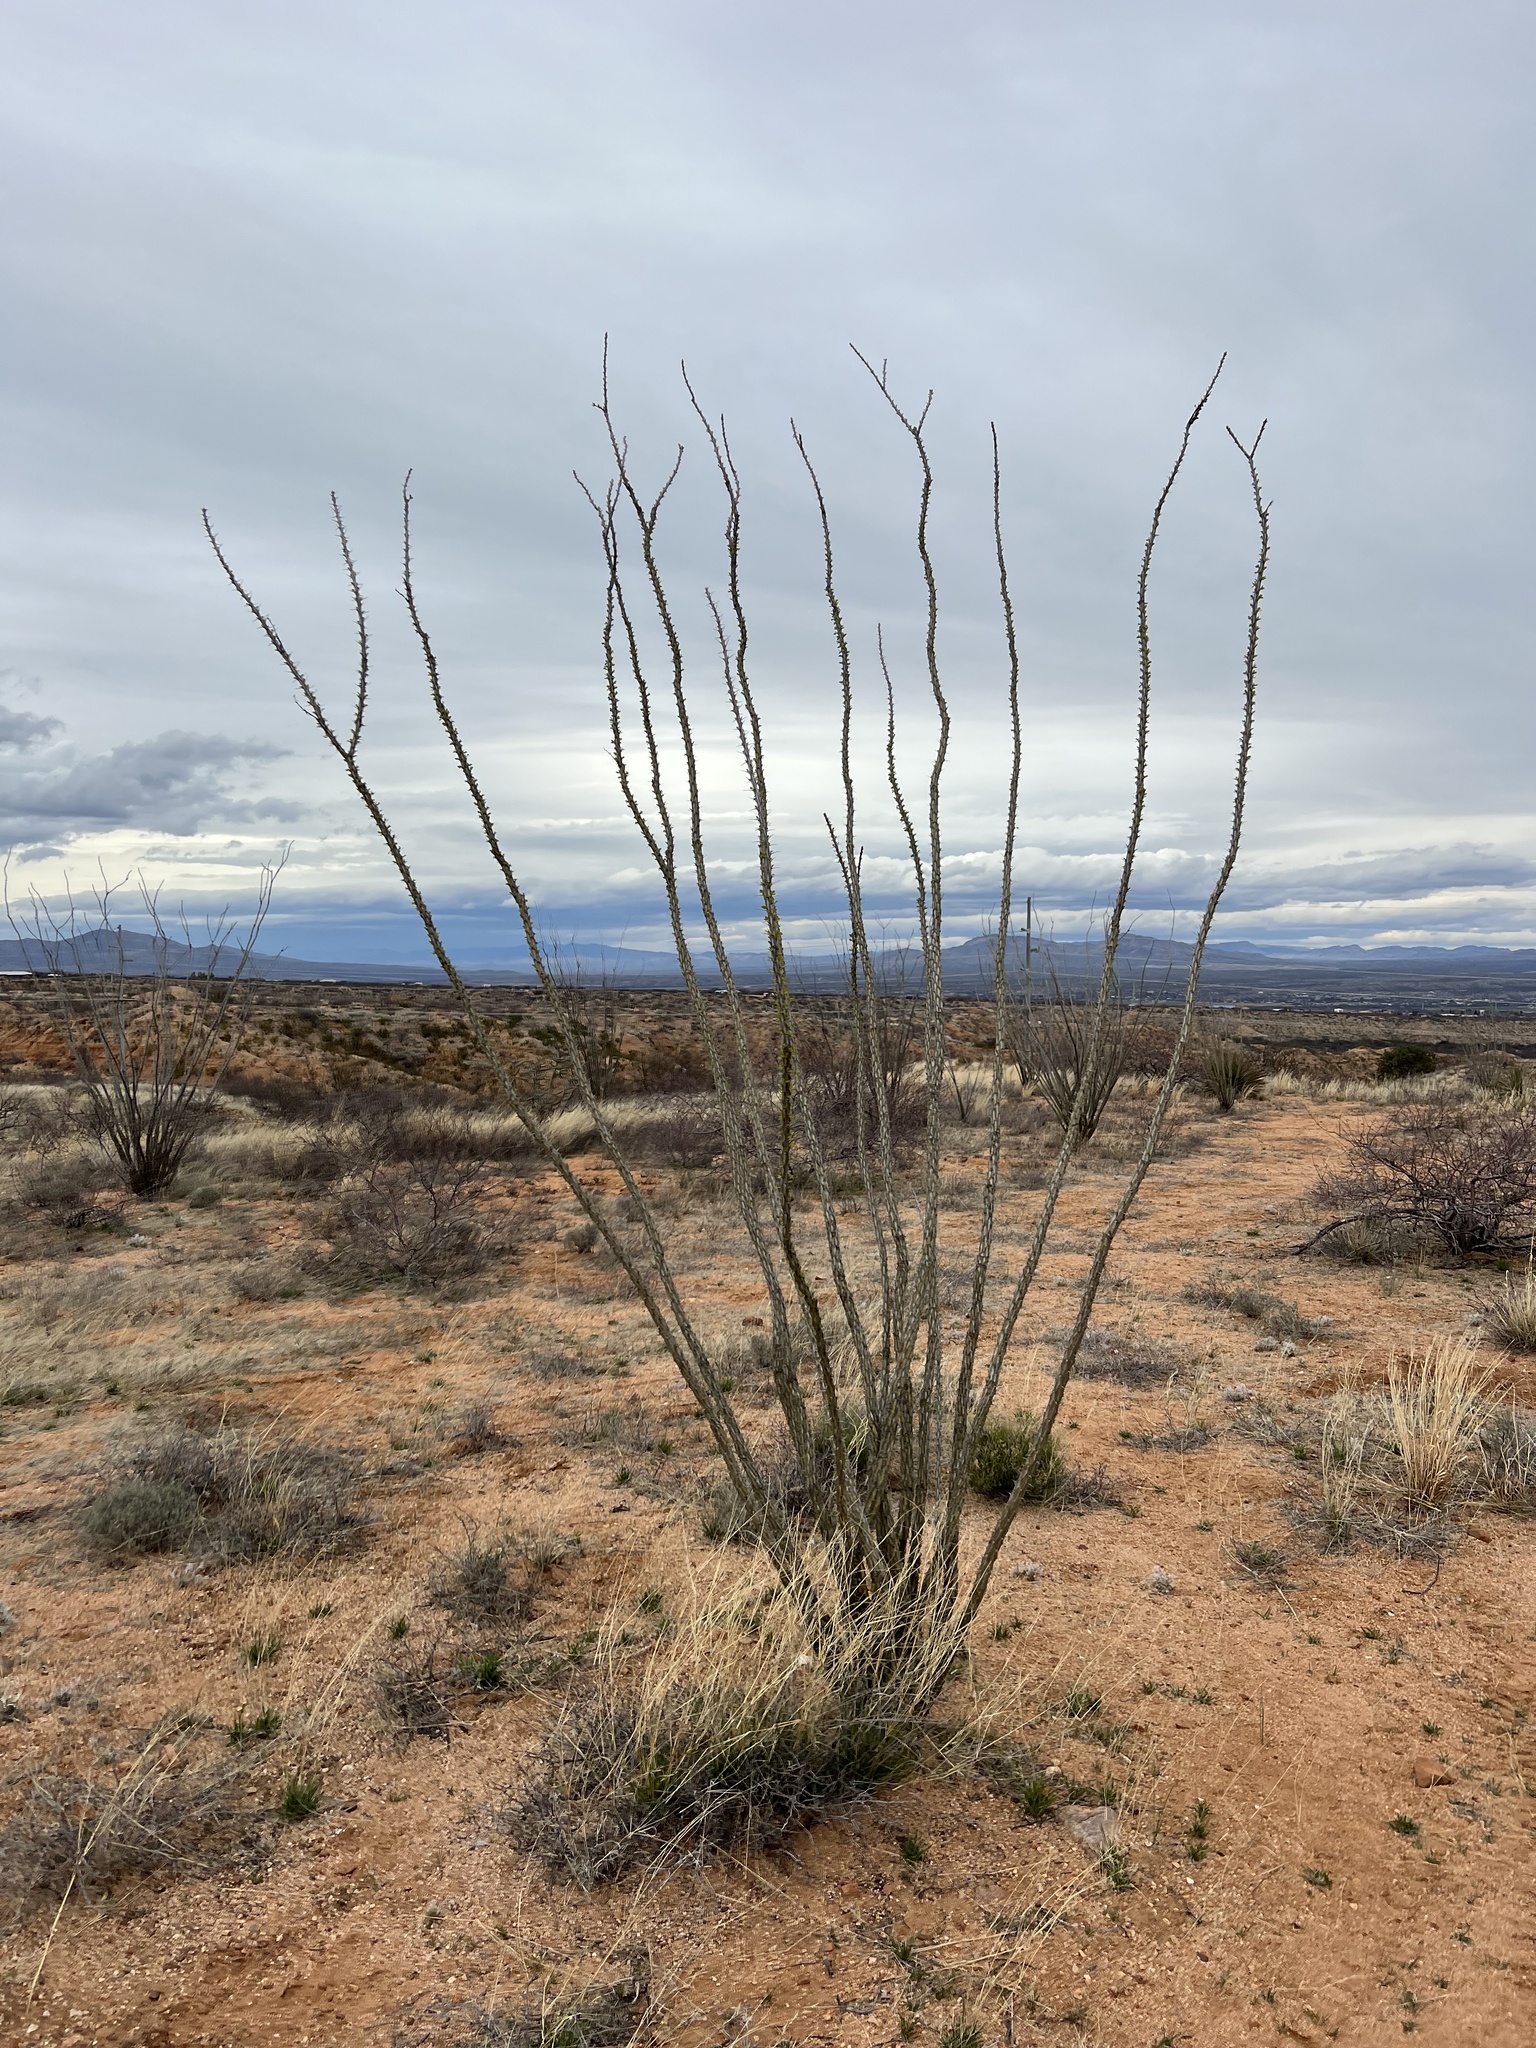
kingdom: Plantae
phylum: Tracheophyta
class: Magnoliopsida
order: Ericales
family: Fouquieriaceae
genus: Fouquieria
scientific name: Fouquieria splendens
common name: Vine-cactus
